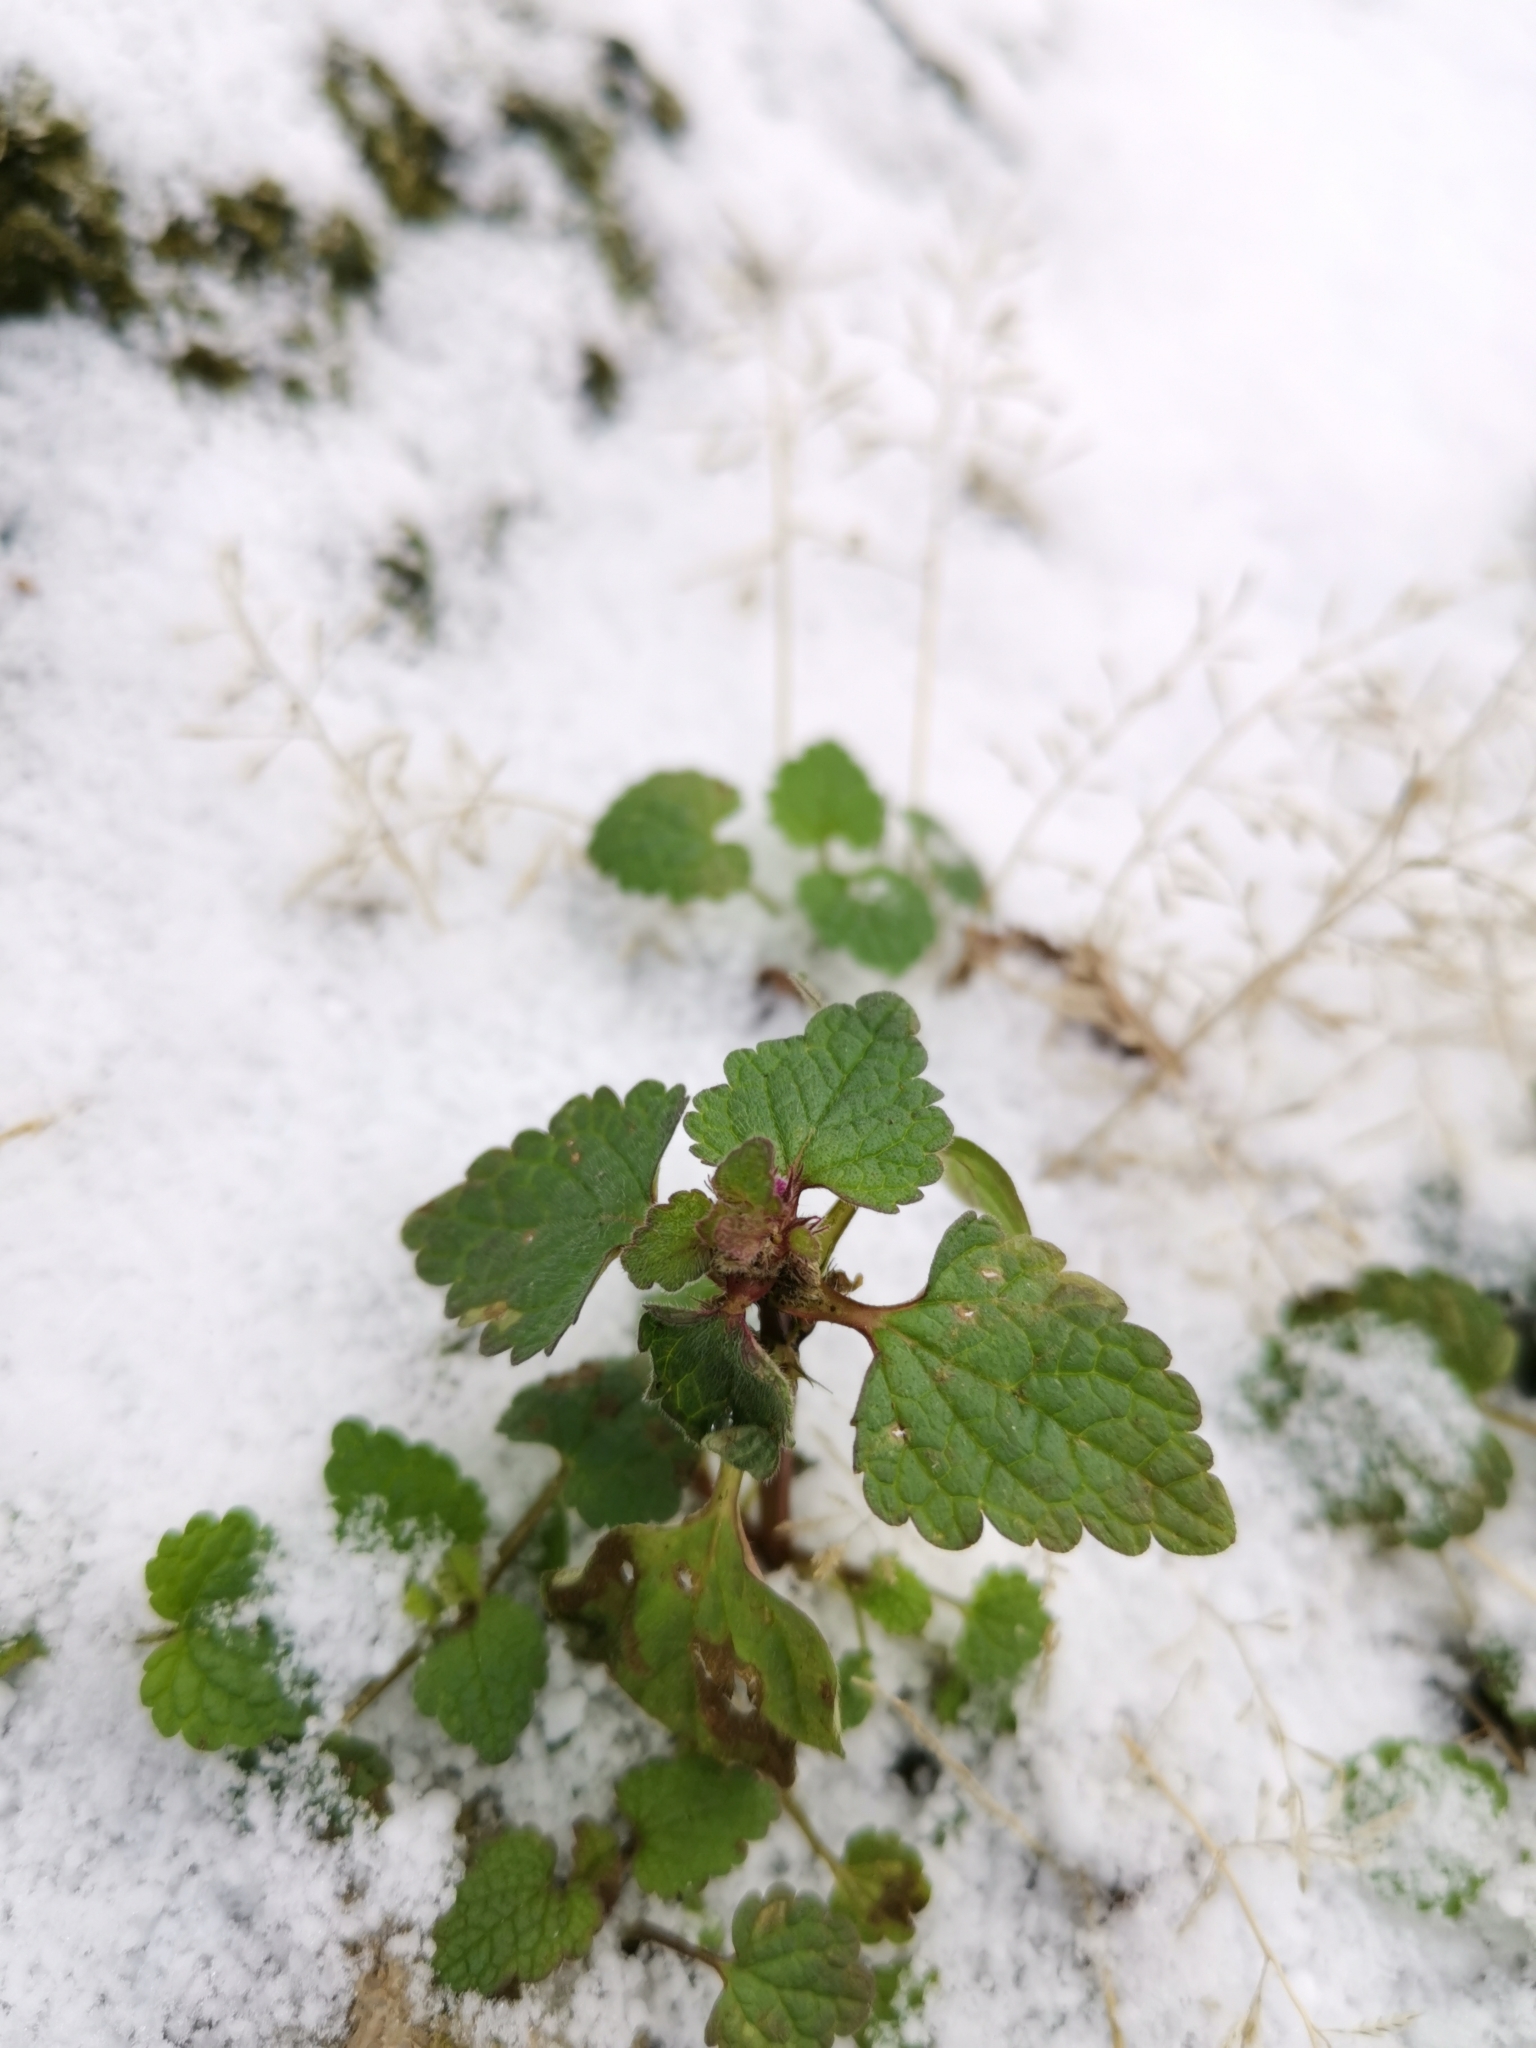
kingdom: Plantae
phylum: Tracheophyta
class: Magnoliopsida
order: Lamiales
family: Lamiaceae
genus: Lamium
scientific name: Lamium purpureum
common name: Red dead-nettle
